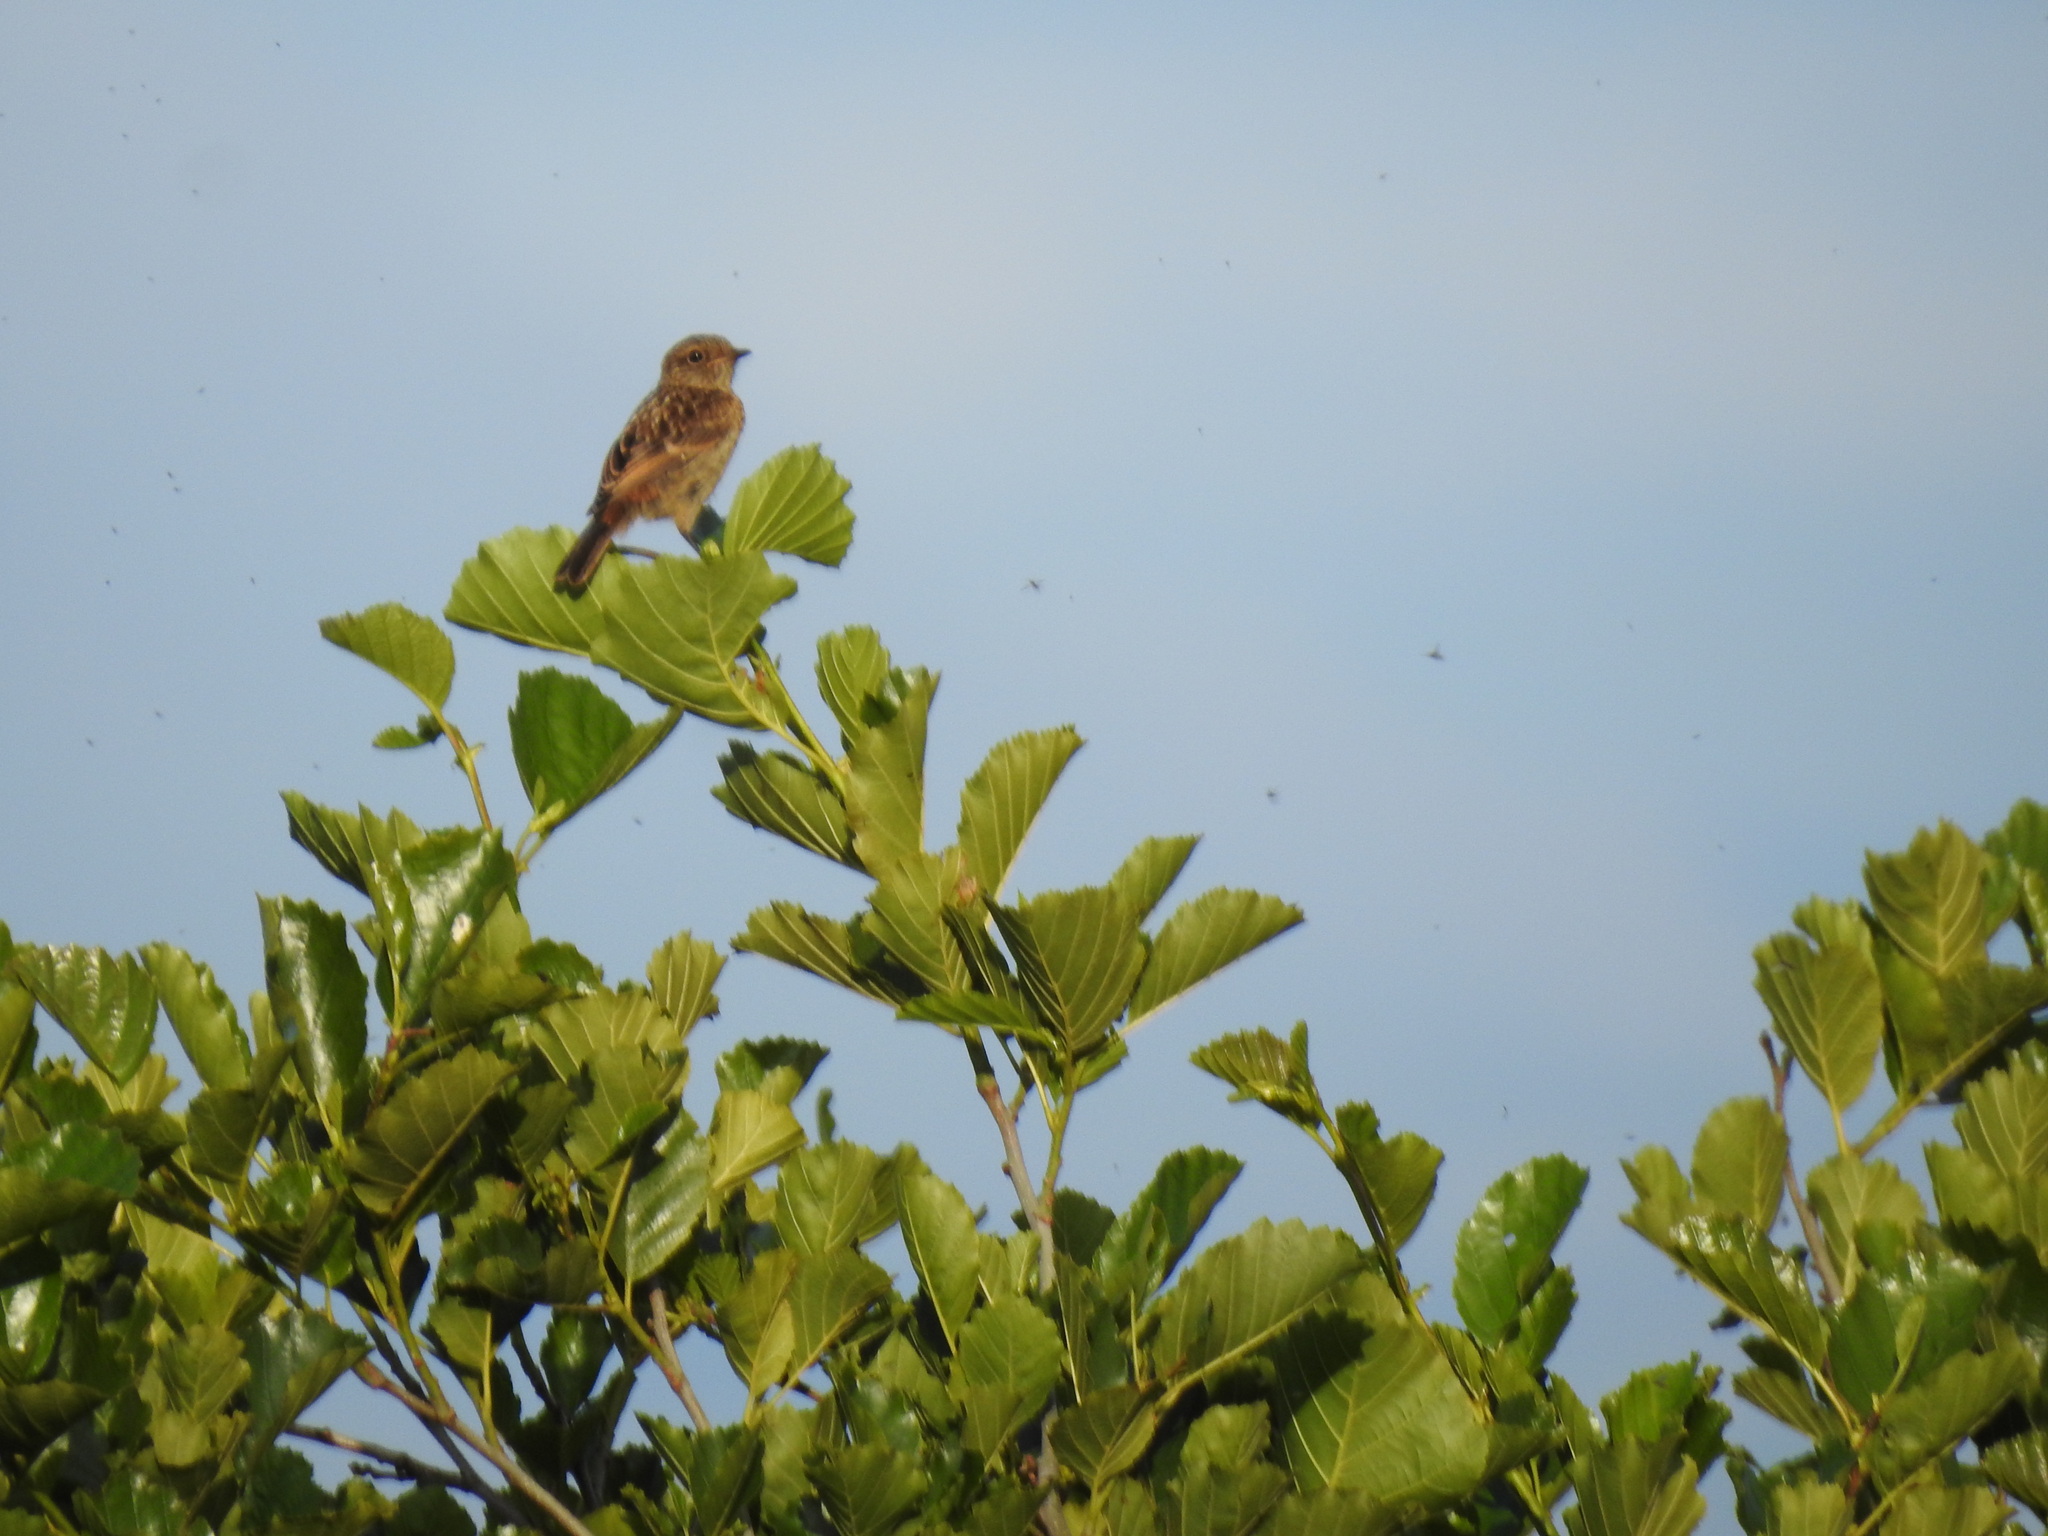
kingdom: Animalia
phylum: Chordata
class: Aves
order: Passeriformes
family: Muscicapidae
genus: Saxicola
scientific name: Saxicola rubicola
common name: European stonechat
